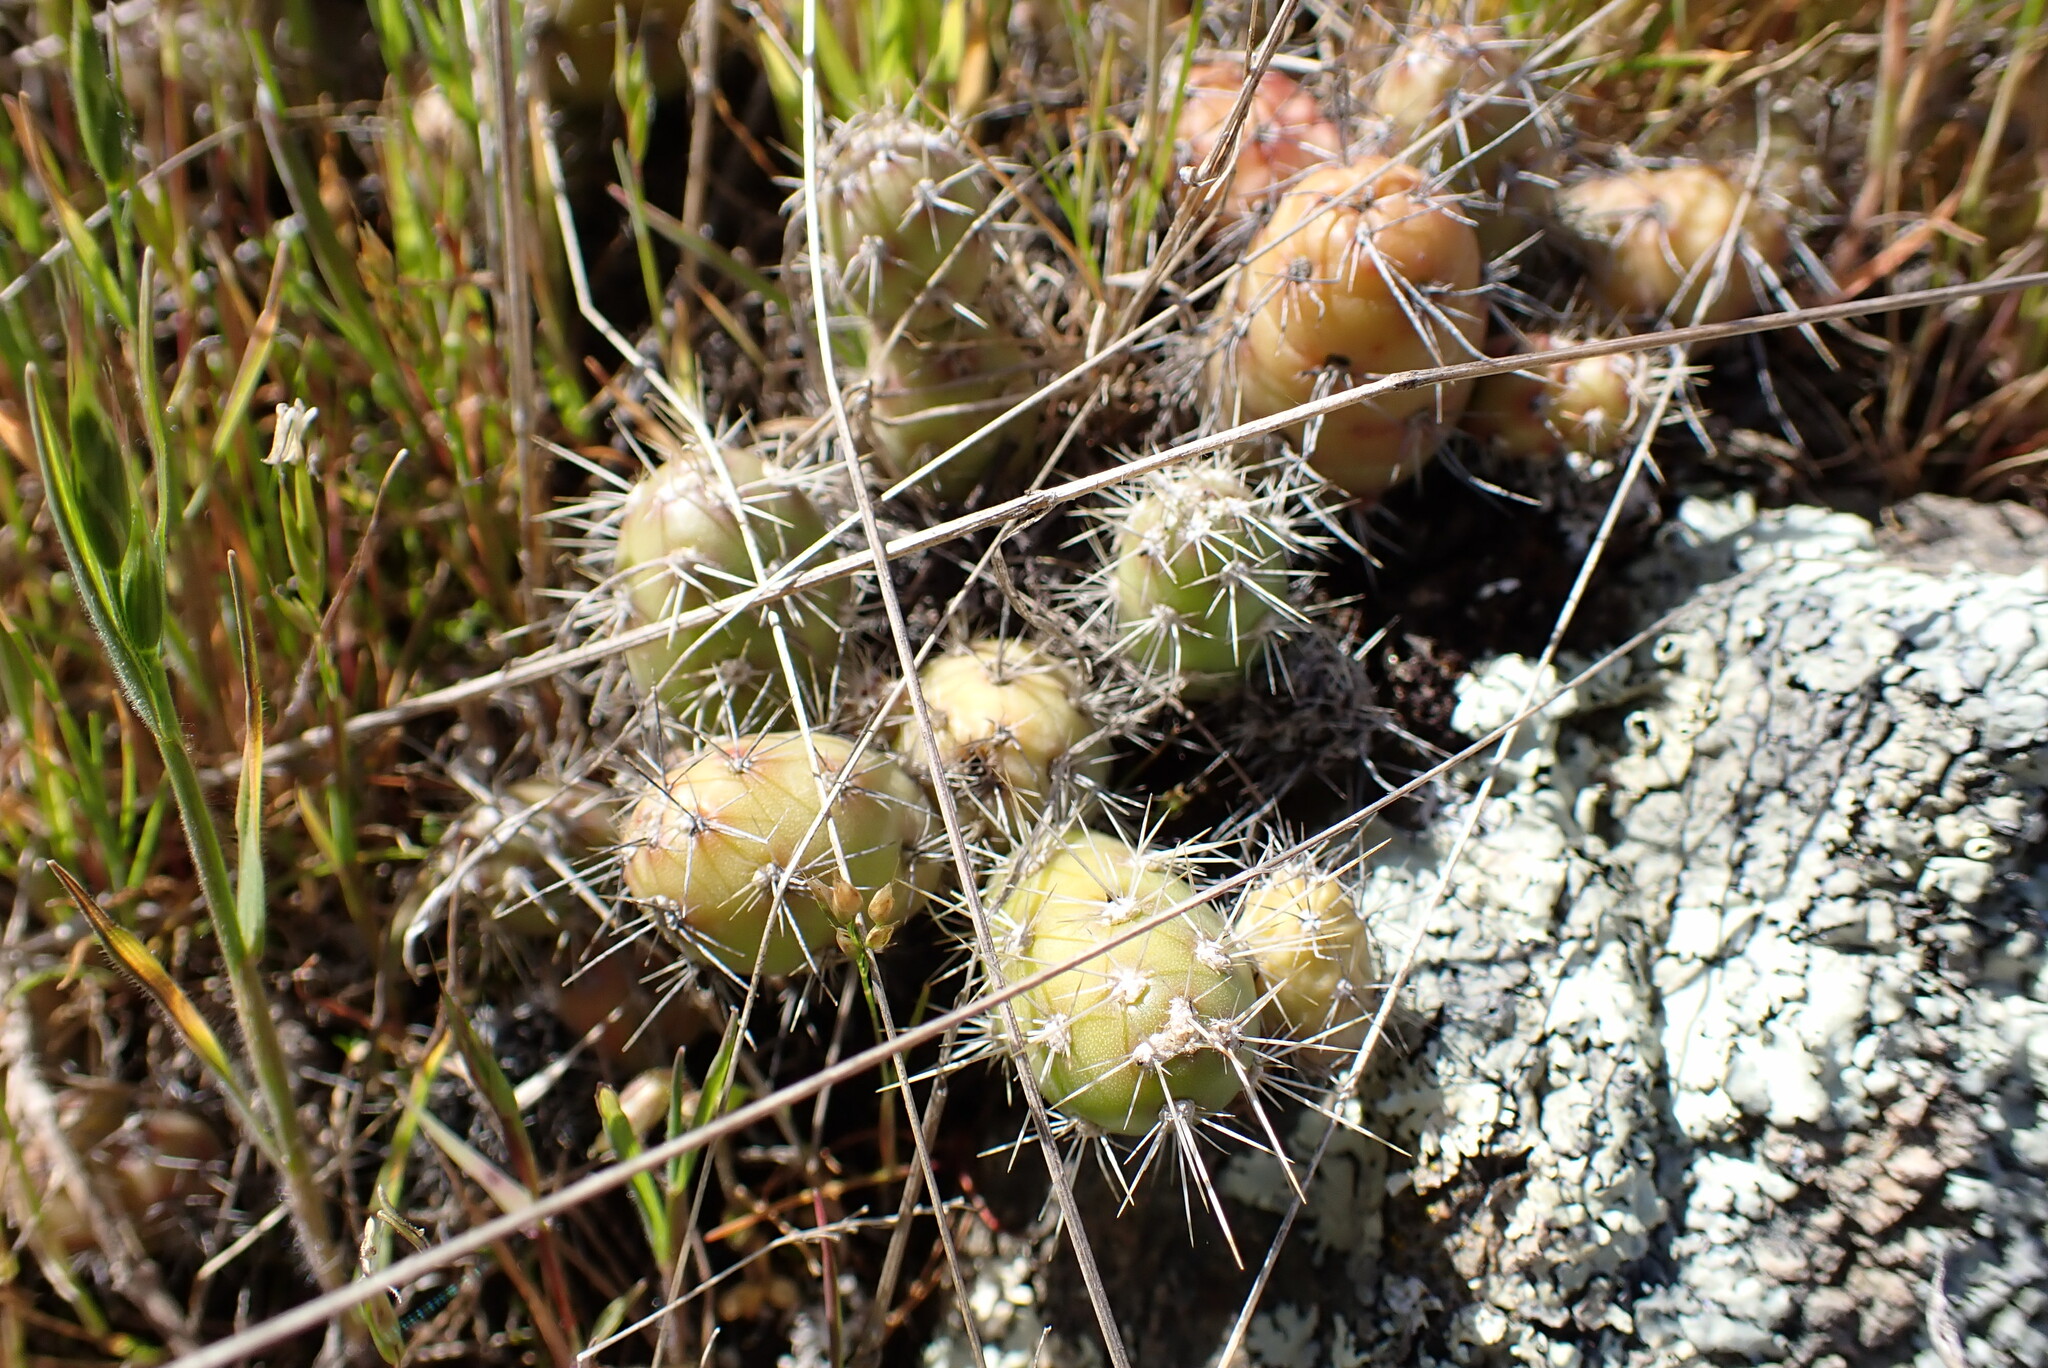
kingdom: Plantae
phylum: Tracheophyta
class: Magnoliopsida
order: Caryophyllales
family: Cactaceae
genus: Opuntia
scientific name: Opuntia fragilis
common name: Brittle cactus
